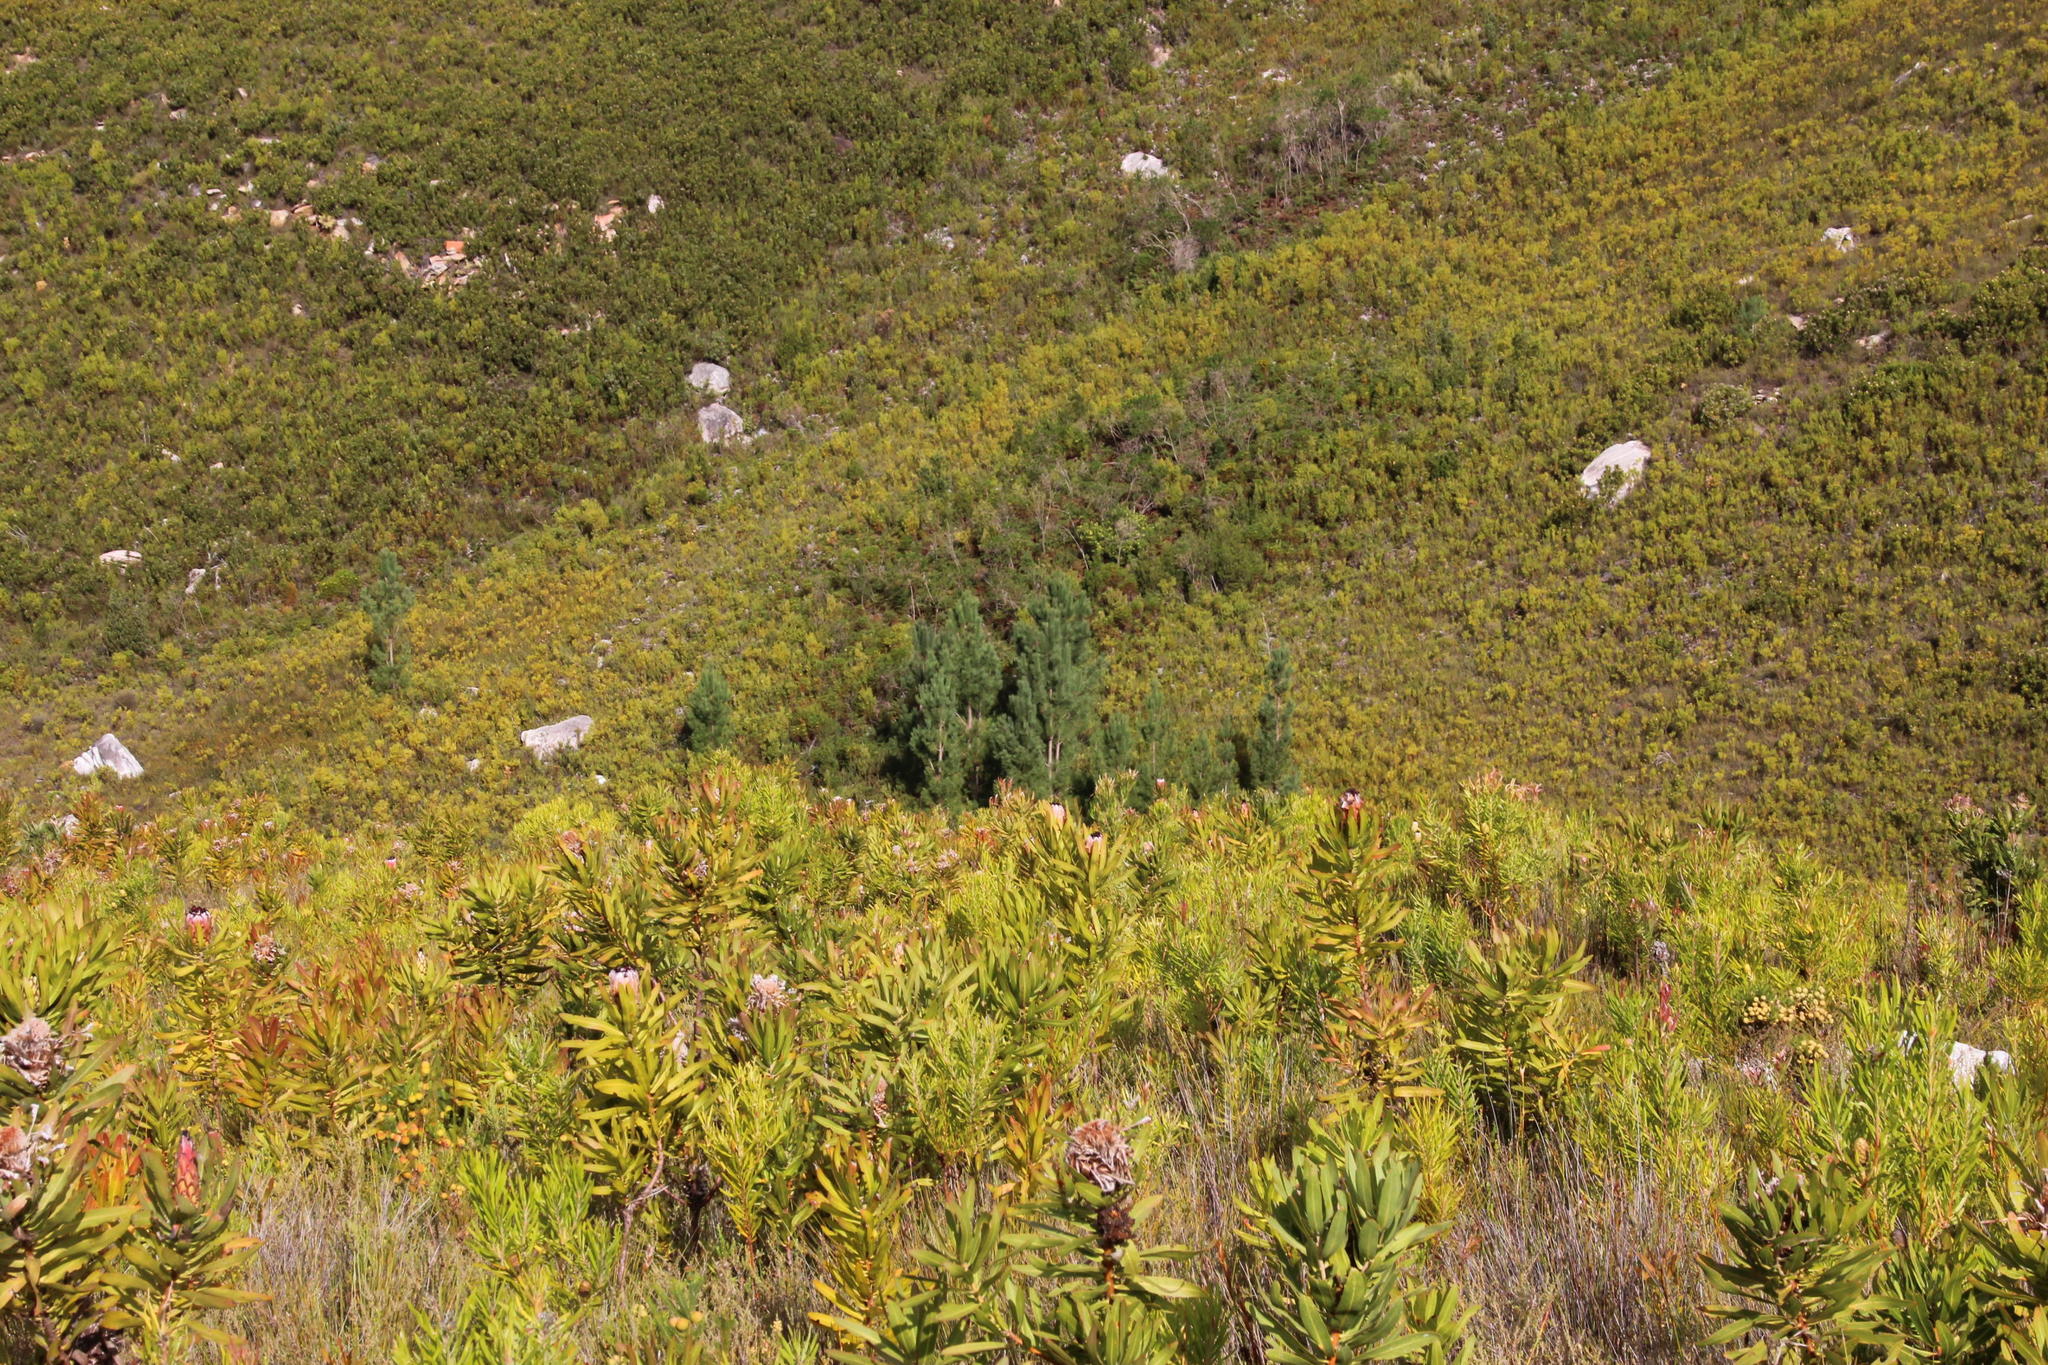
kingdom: Plantae
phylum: Tracheophyta
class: Pinopsida
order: Pinales
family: Pinaceae
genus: Pinus
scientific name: Pinus pinaster
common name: Maritime pine
